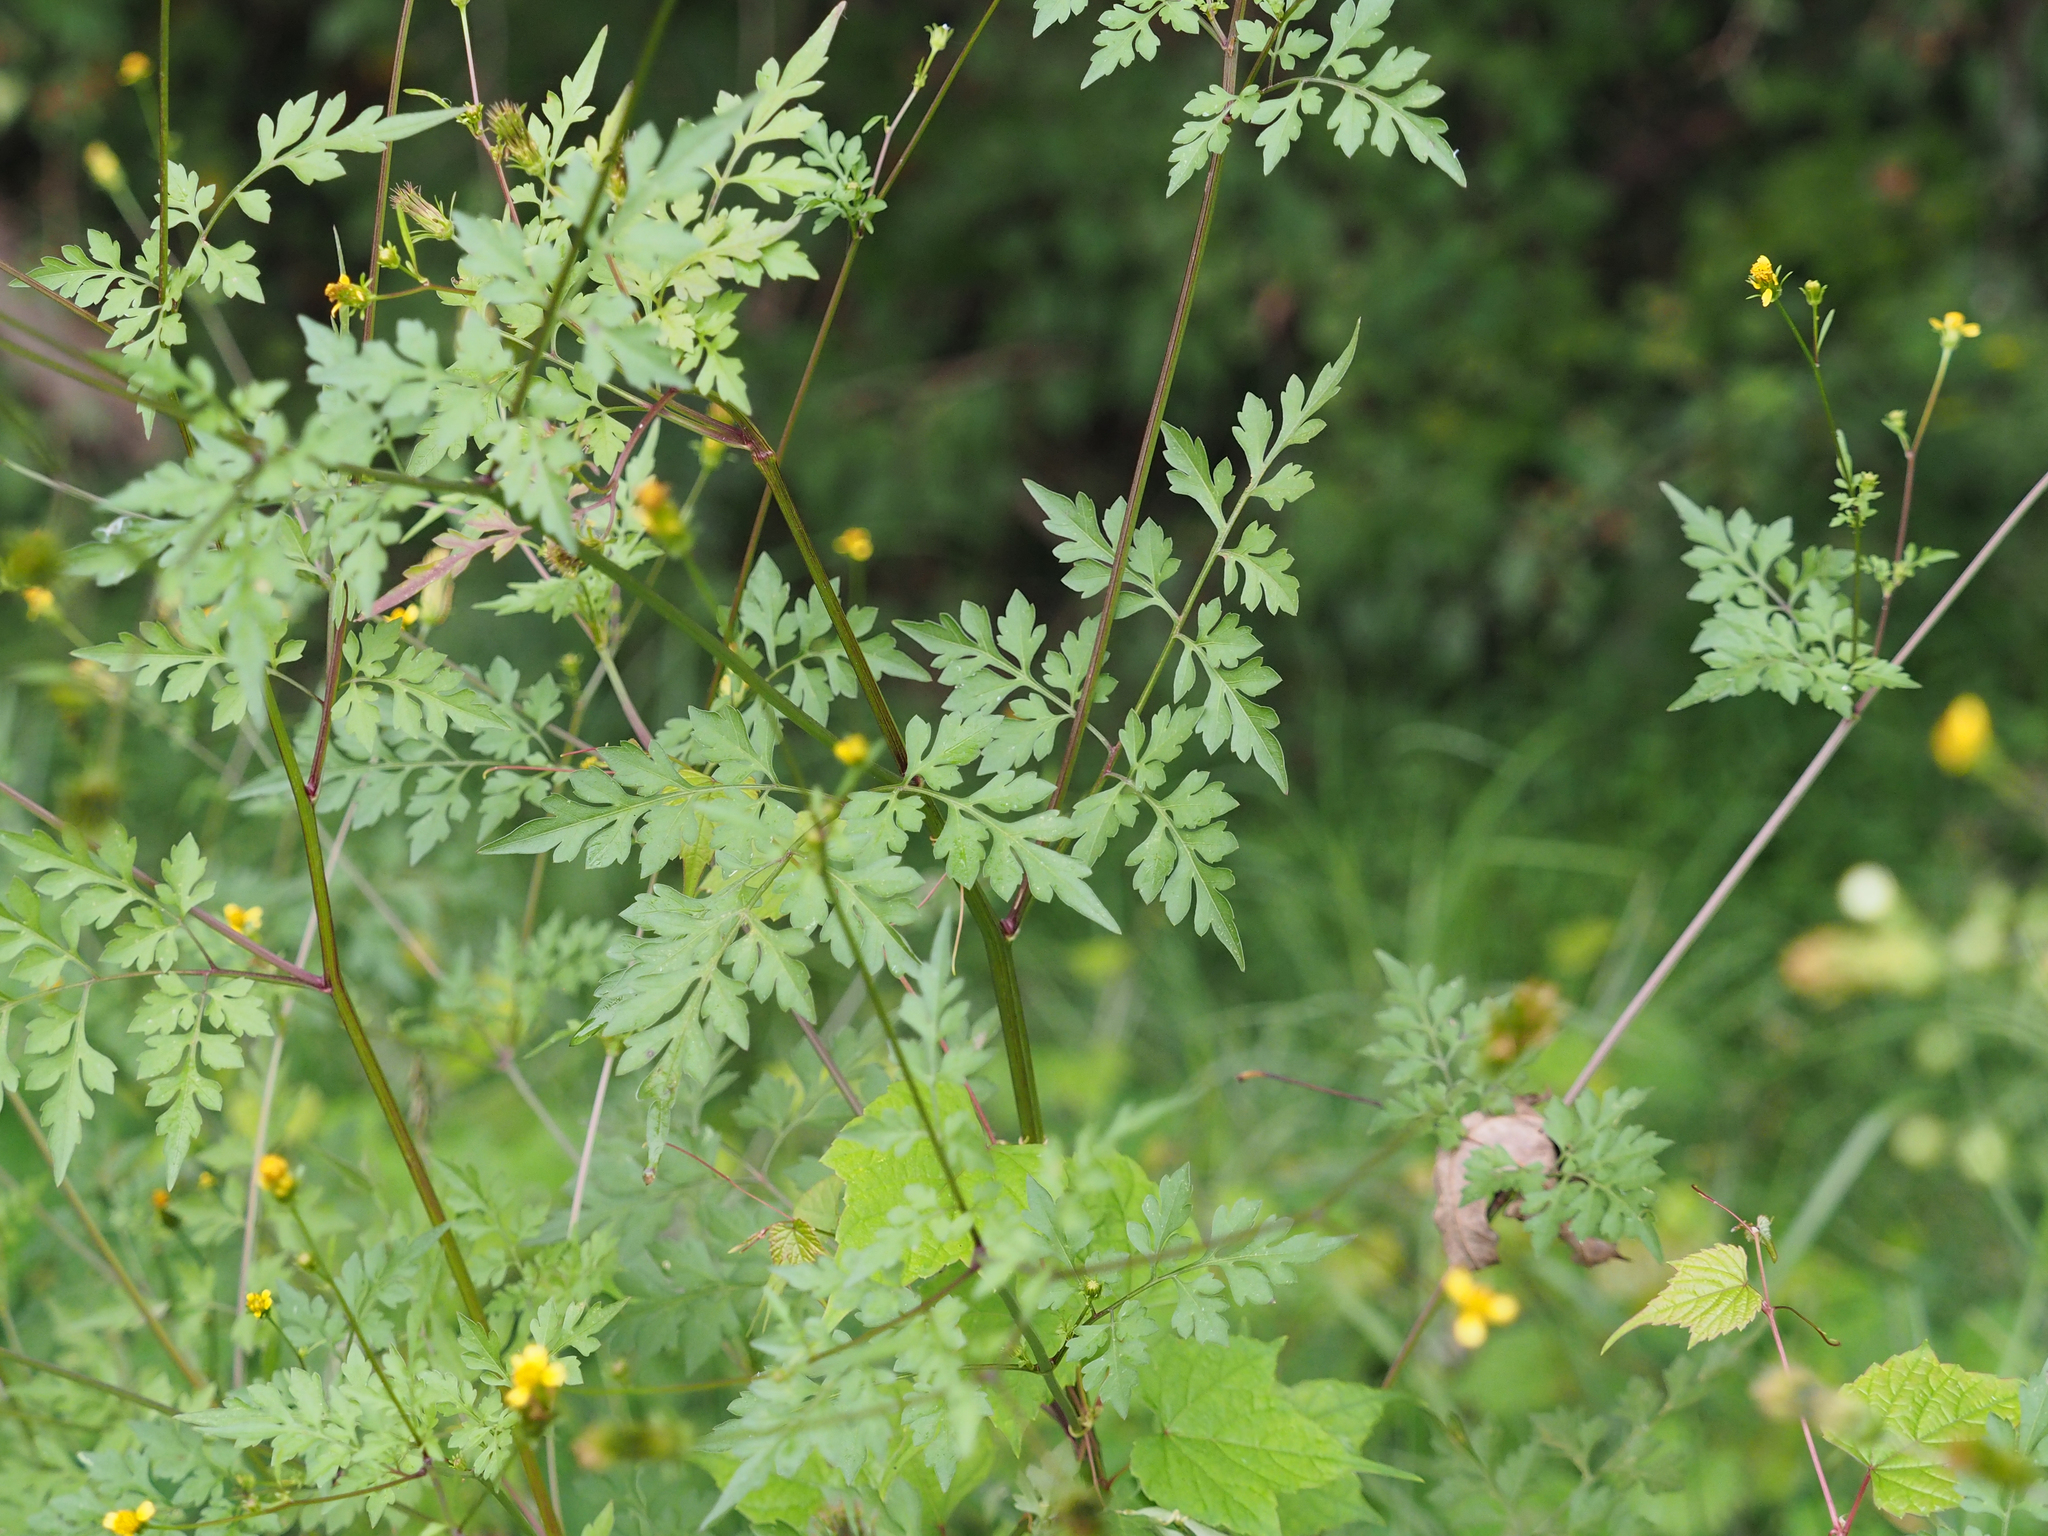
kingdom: Plantae
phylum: Tracheophyta
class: Magnoliopsida
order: Asterales
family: Asteraceae
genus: Bidens
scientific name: Bidens bipinnata
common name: Spanish-needles
